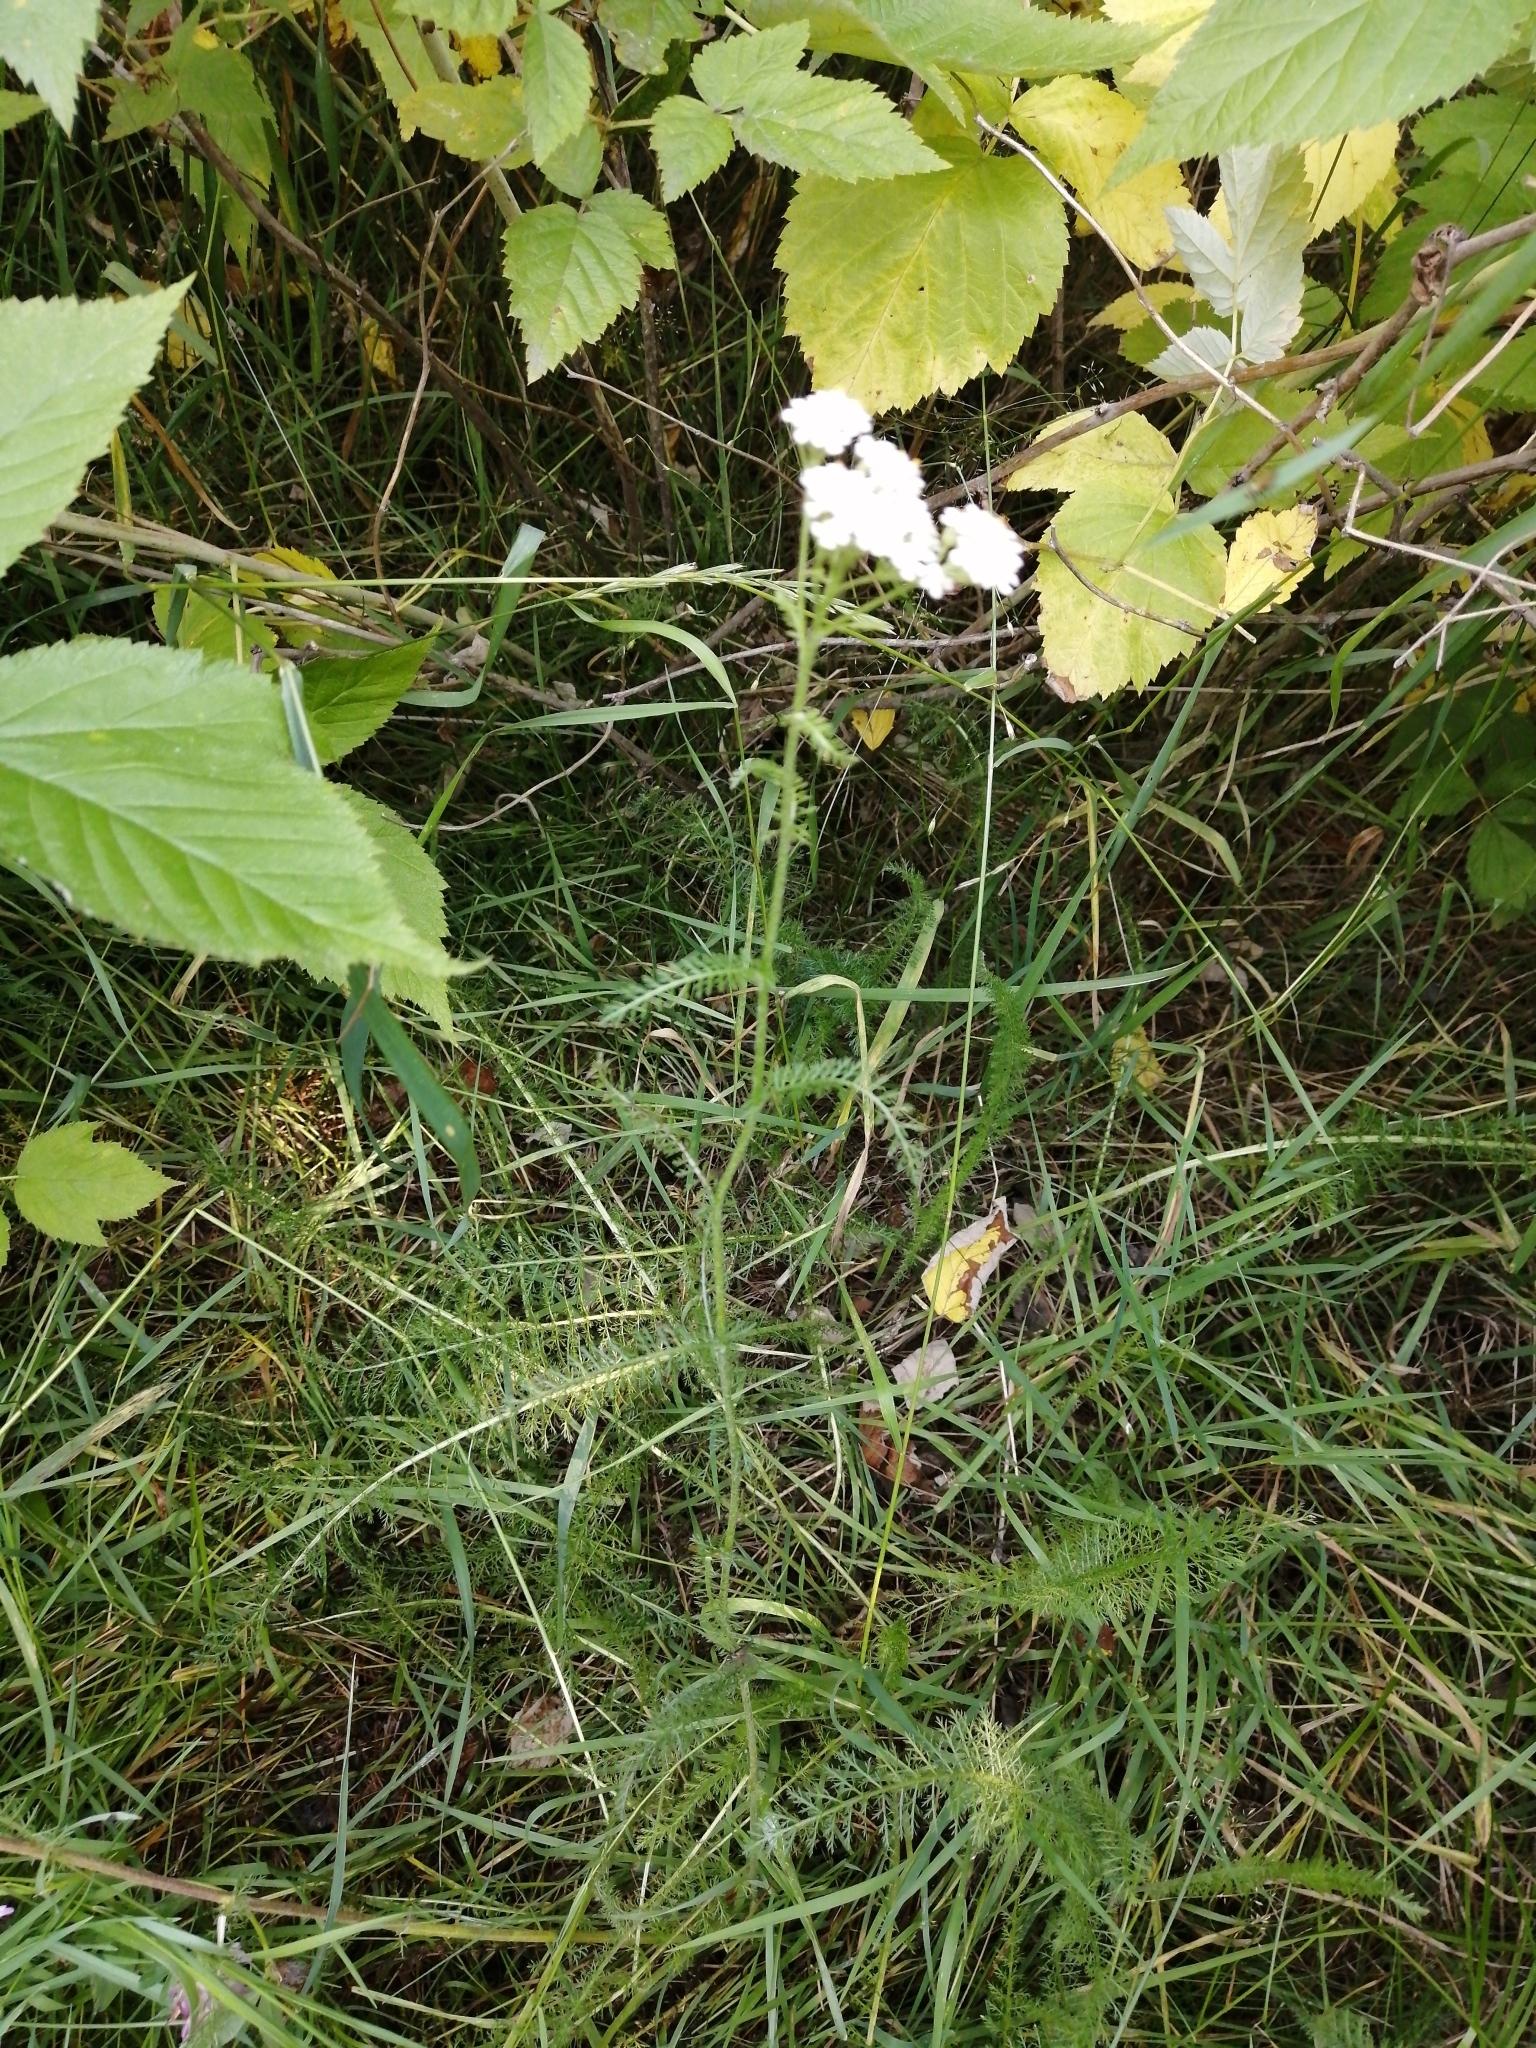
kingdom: Plantae
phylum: Tracheophyta
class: Magnoliopsida
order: Asterales
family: Asteraceae
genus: Achillea
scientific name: Achillea millefolium
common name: Yarrow
